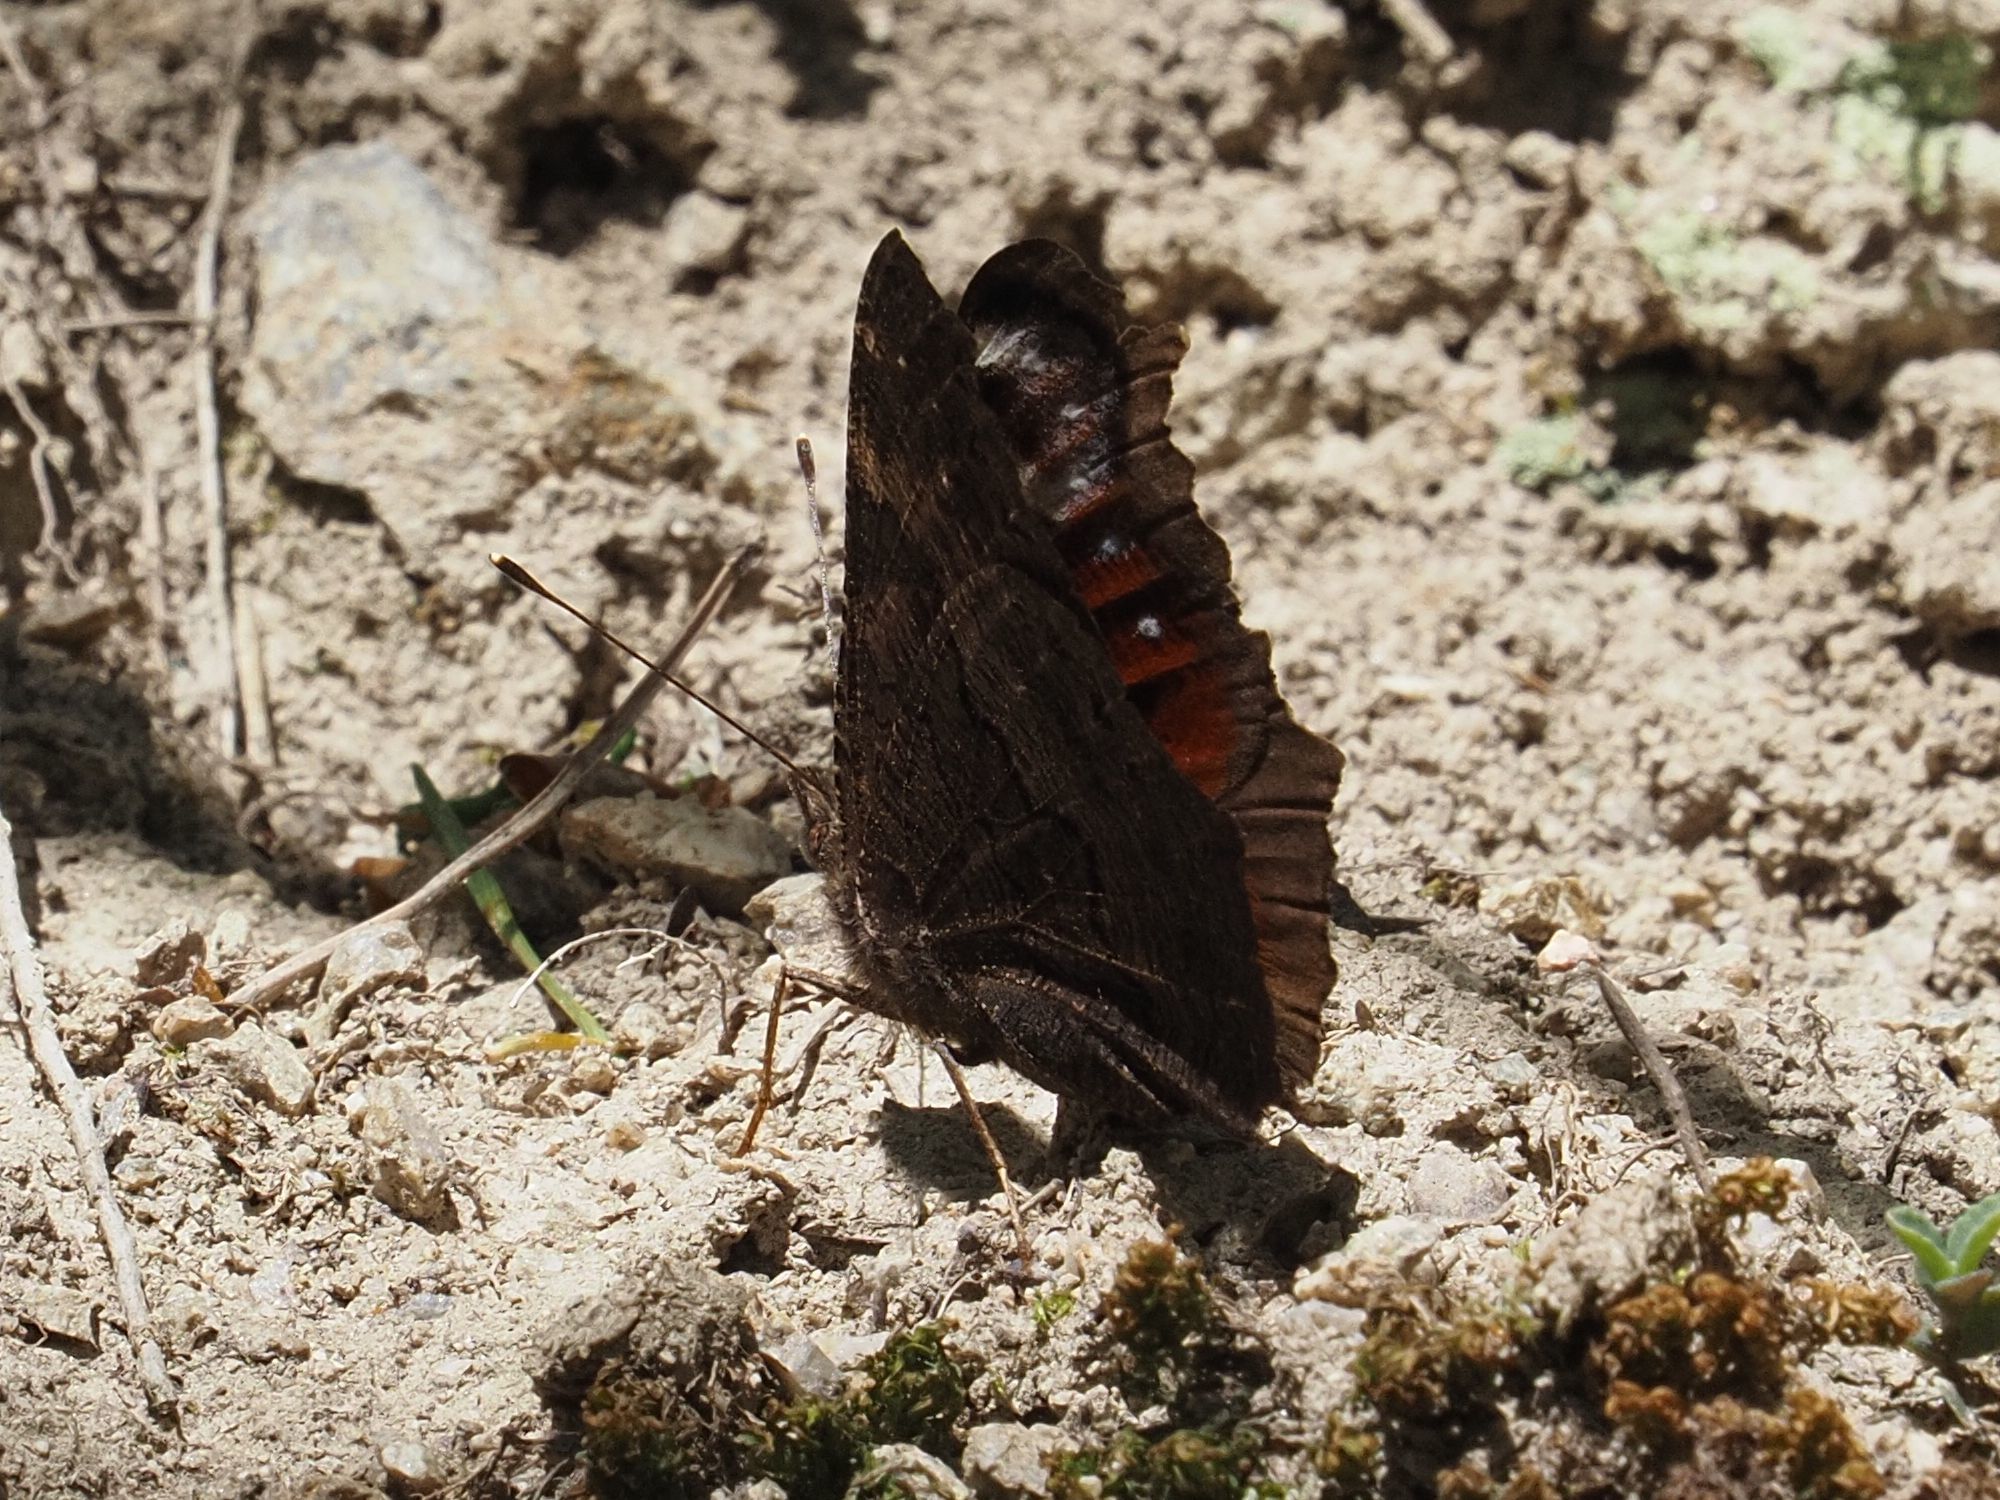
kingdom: Animalia
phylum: Arthropoda
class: Insecta
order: Lepidoptera
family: Nymphalidae
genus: Aglais
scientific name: Aglais io
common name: Peacock
